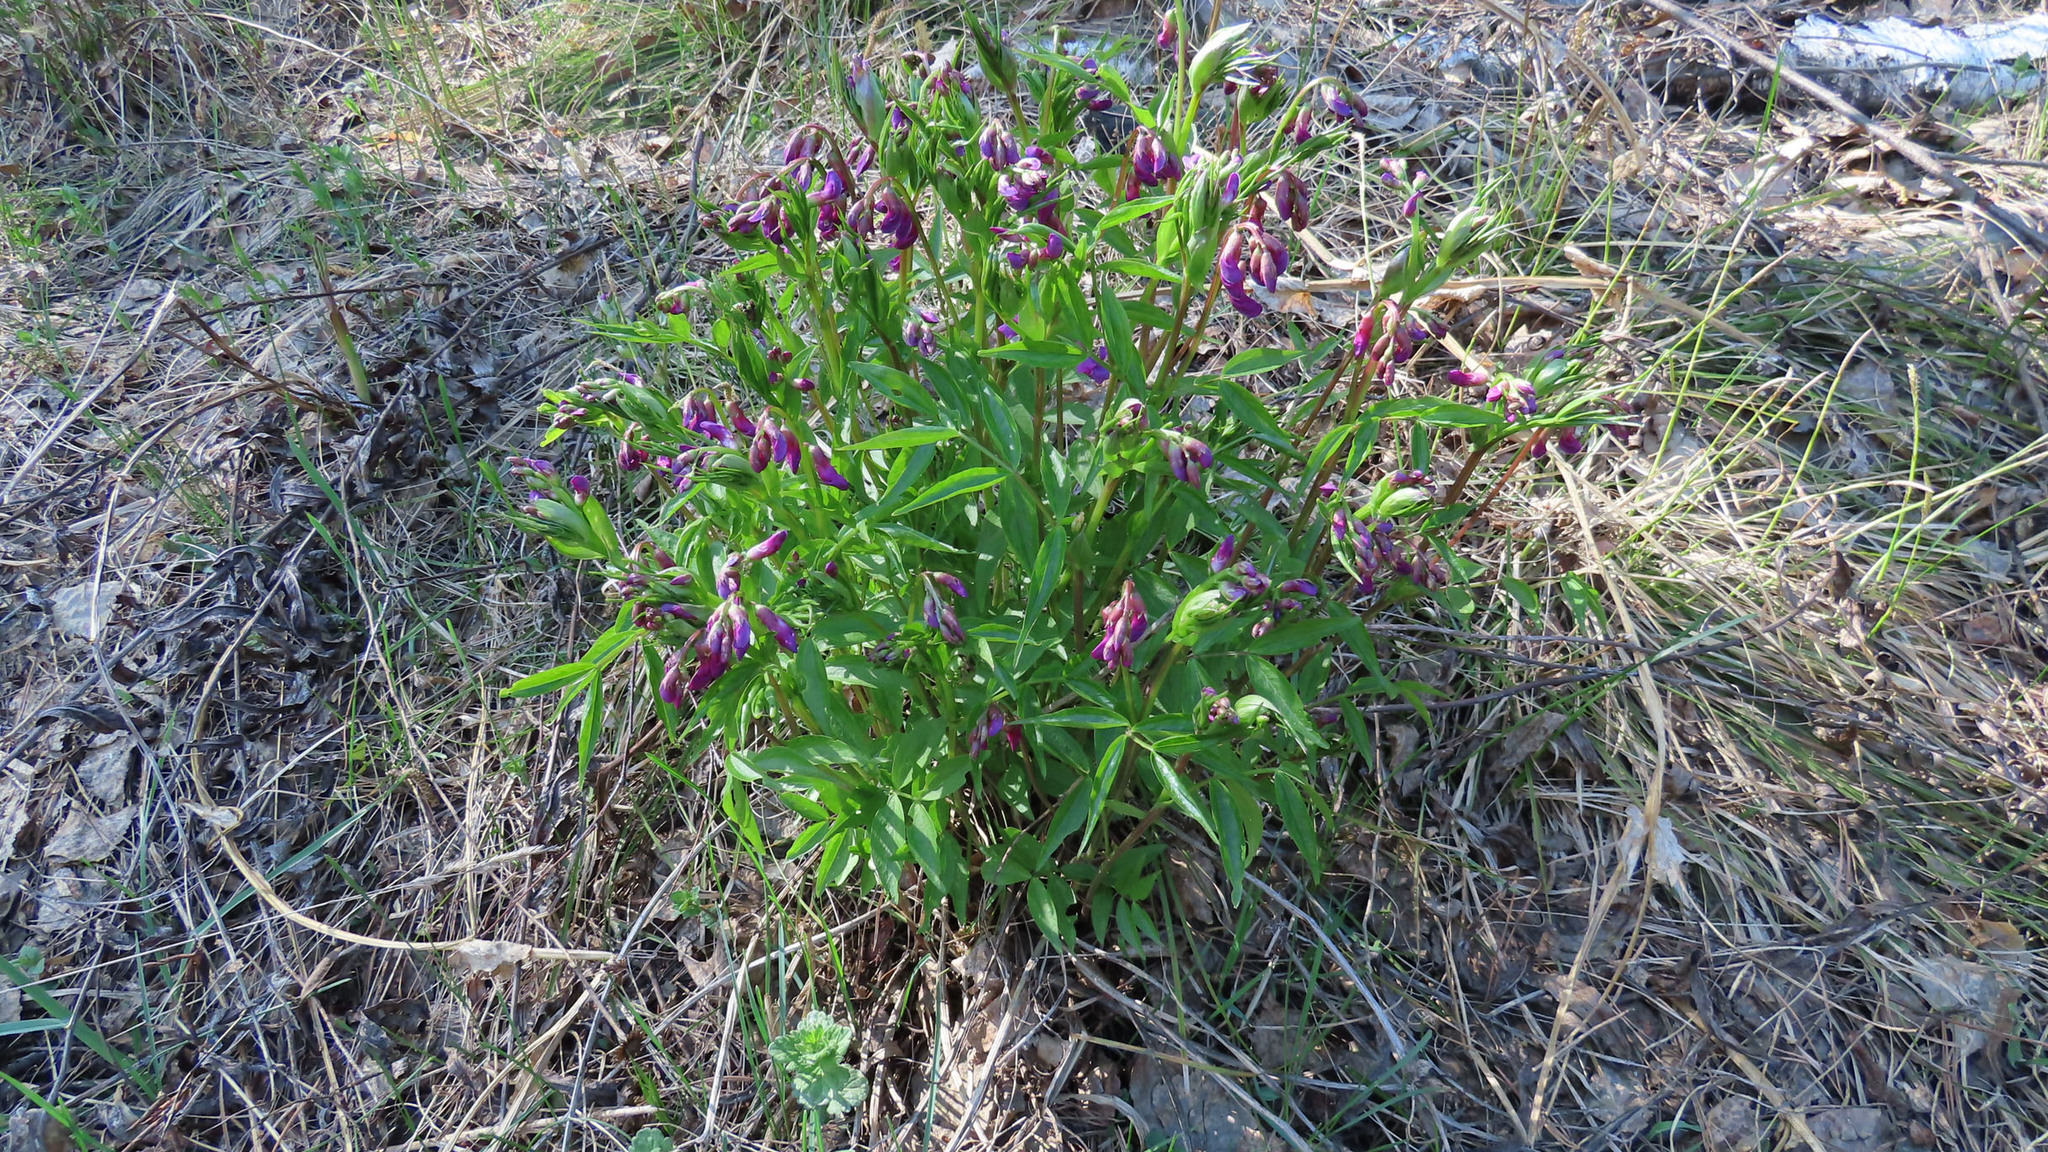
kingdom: Plantae
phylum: Tracheophyta
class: Magnoliopsida
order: Fabales
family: Fabaceae
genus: Lathyrus
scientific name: Lathyrus vernus
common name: Spring pea
